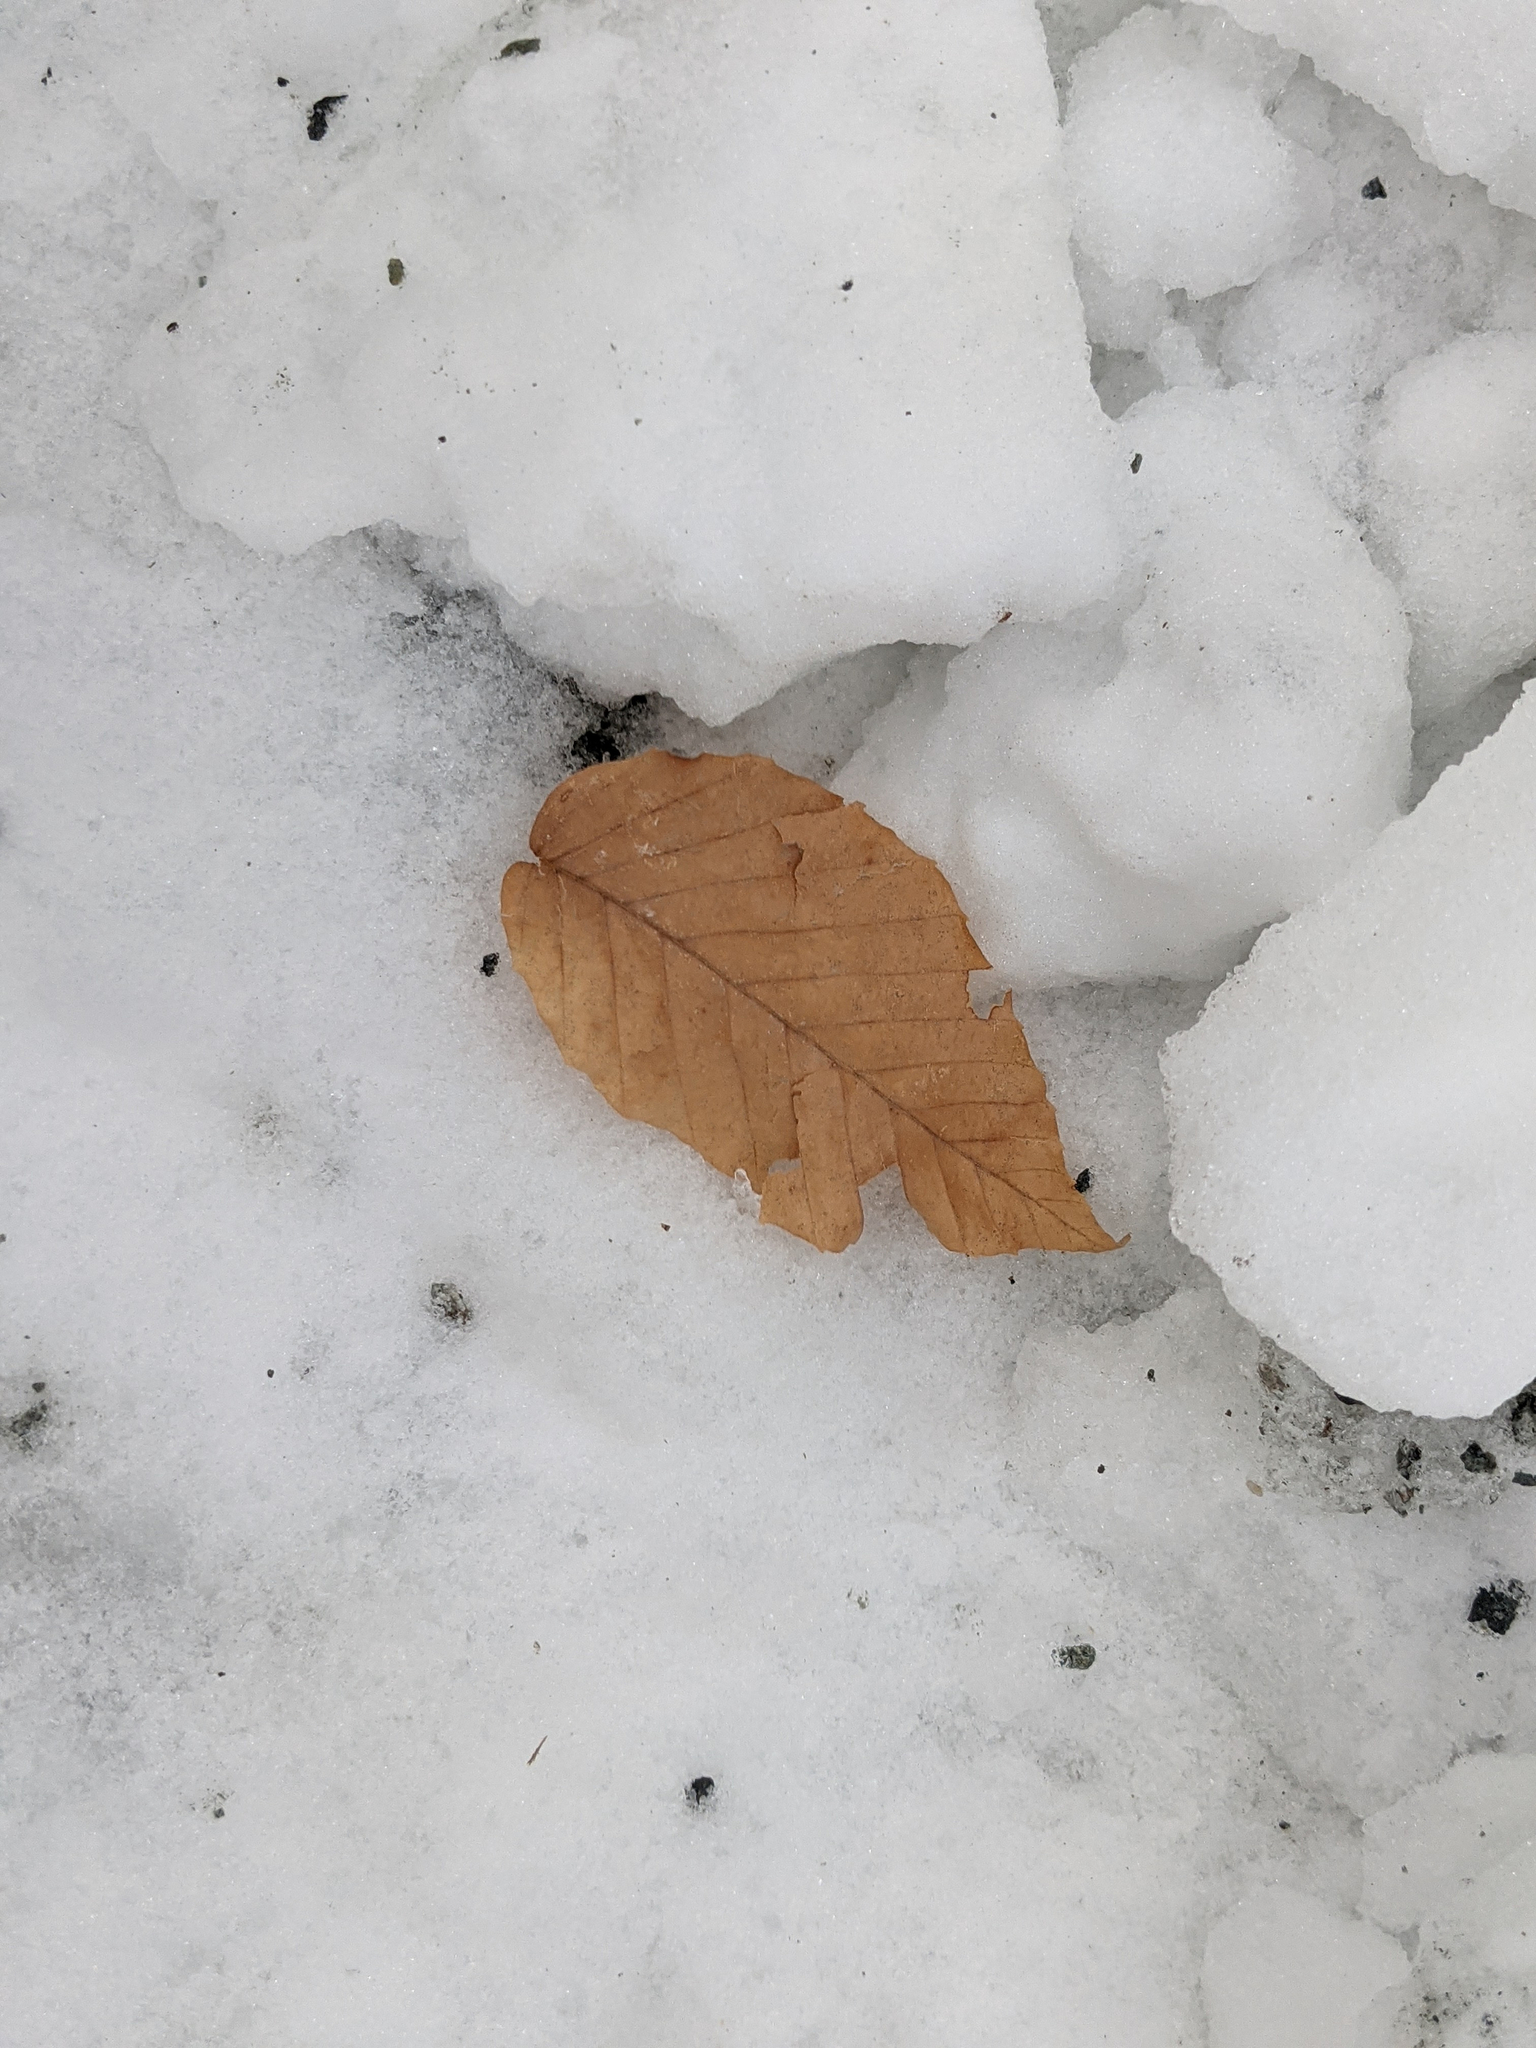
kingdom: Plantae
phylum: Tracheophyta
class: Magnoliopsida
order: Fagales
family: Fagaceae
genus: Fagus
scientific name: Fagus grandifolia
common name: American beech
